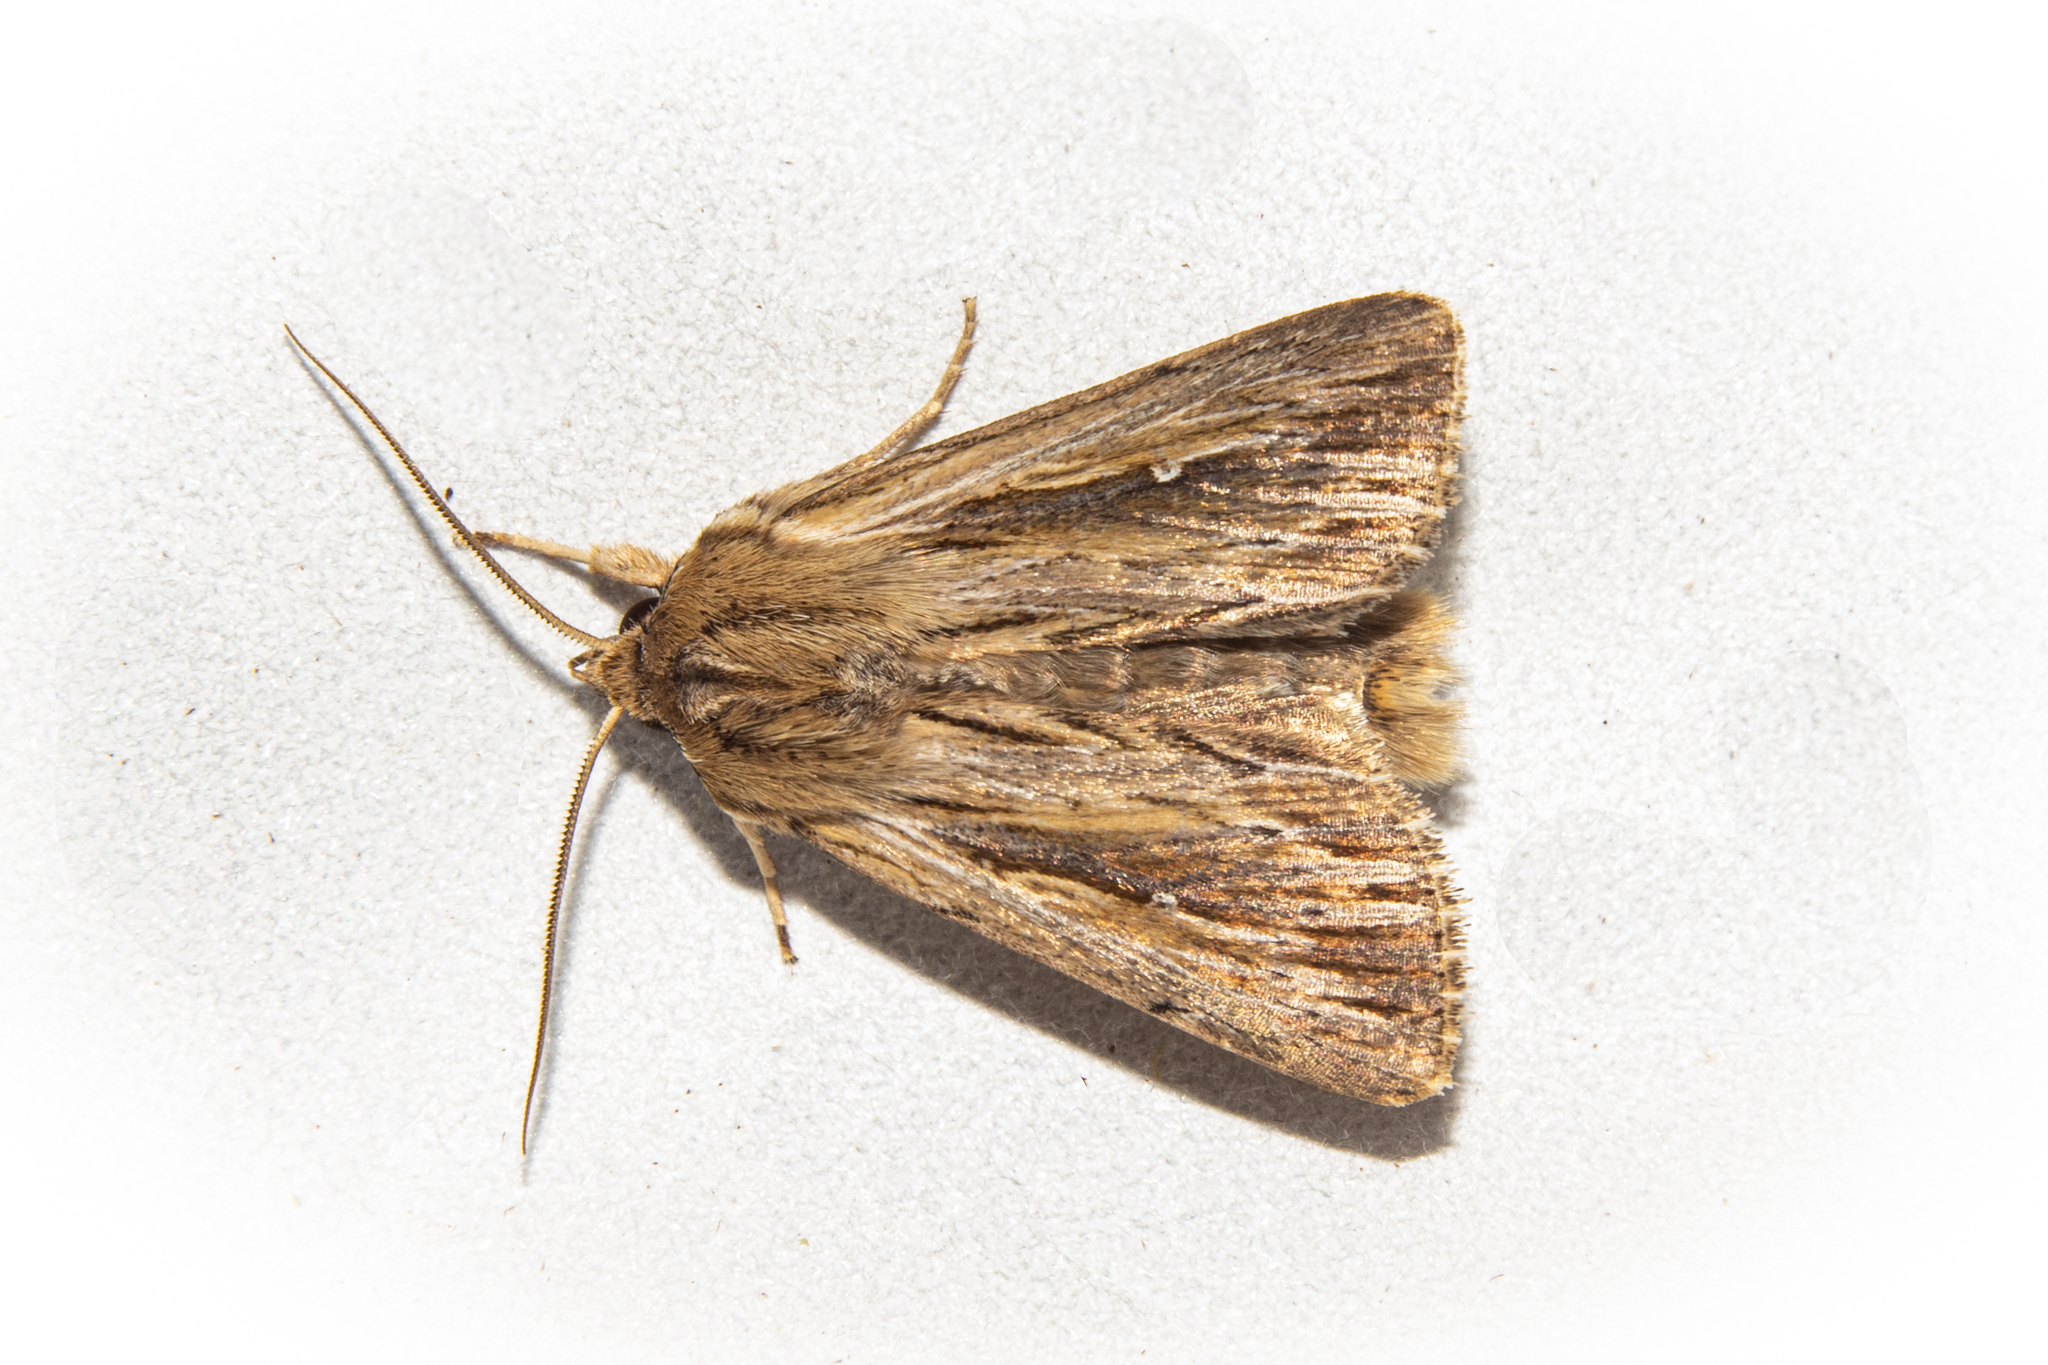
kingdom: Animalia
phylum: Arthropoda
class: Insecta
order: Lepidoptera
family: Noctuidae
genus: Persectania
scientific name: Persectania aversa
